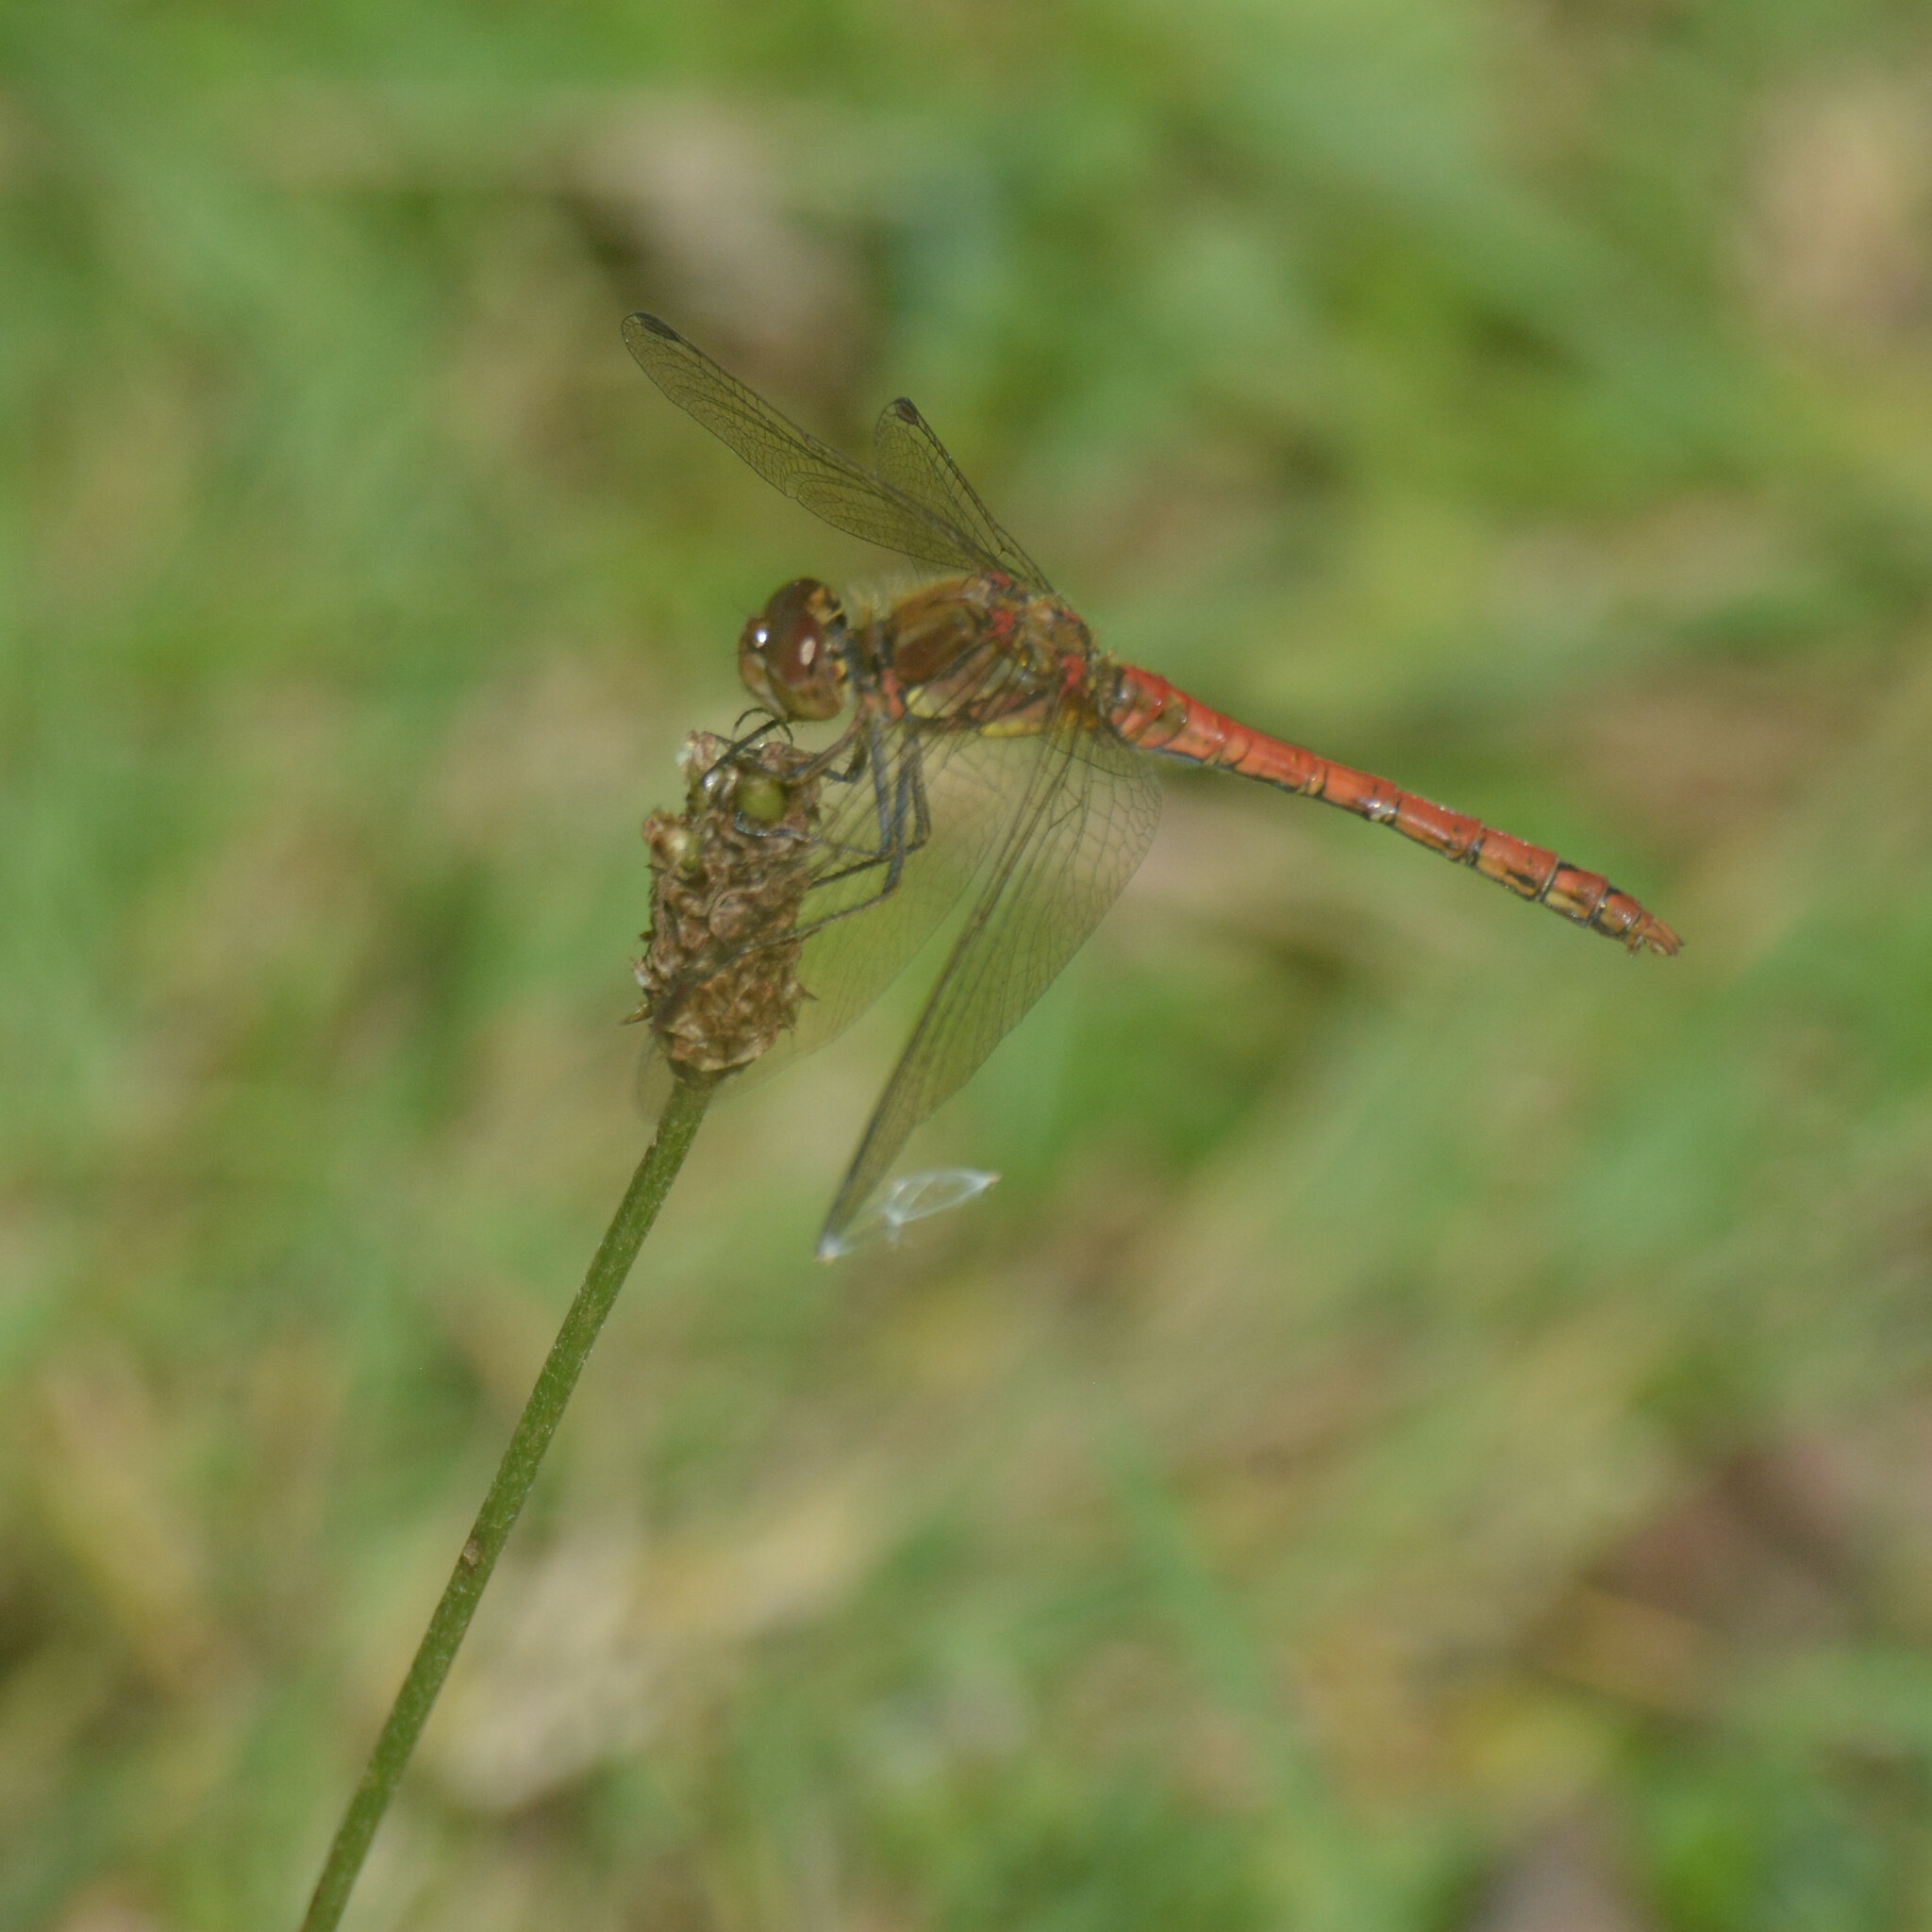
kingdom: Animalia
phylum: Arthropoda
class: Insecta
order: Odonata
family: Libellulidae
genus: Sympetrum
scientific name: Sympetrum striolatum
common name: Common darter
